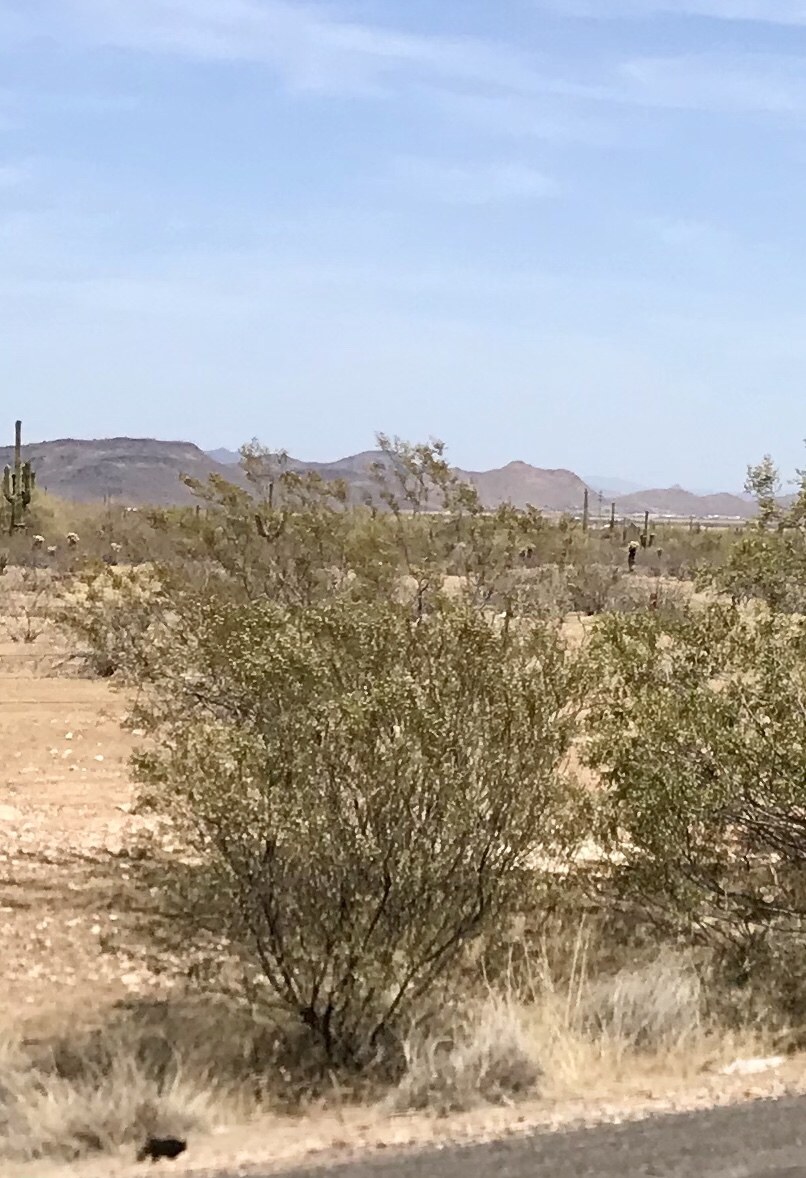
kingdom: Plantae
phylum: Tracheophyta
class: Magnoliopsida
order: Zygophyllales
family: Zygophyllaceae
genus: Larrea
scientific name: Larrea tridentata
